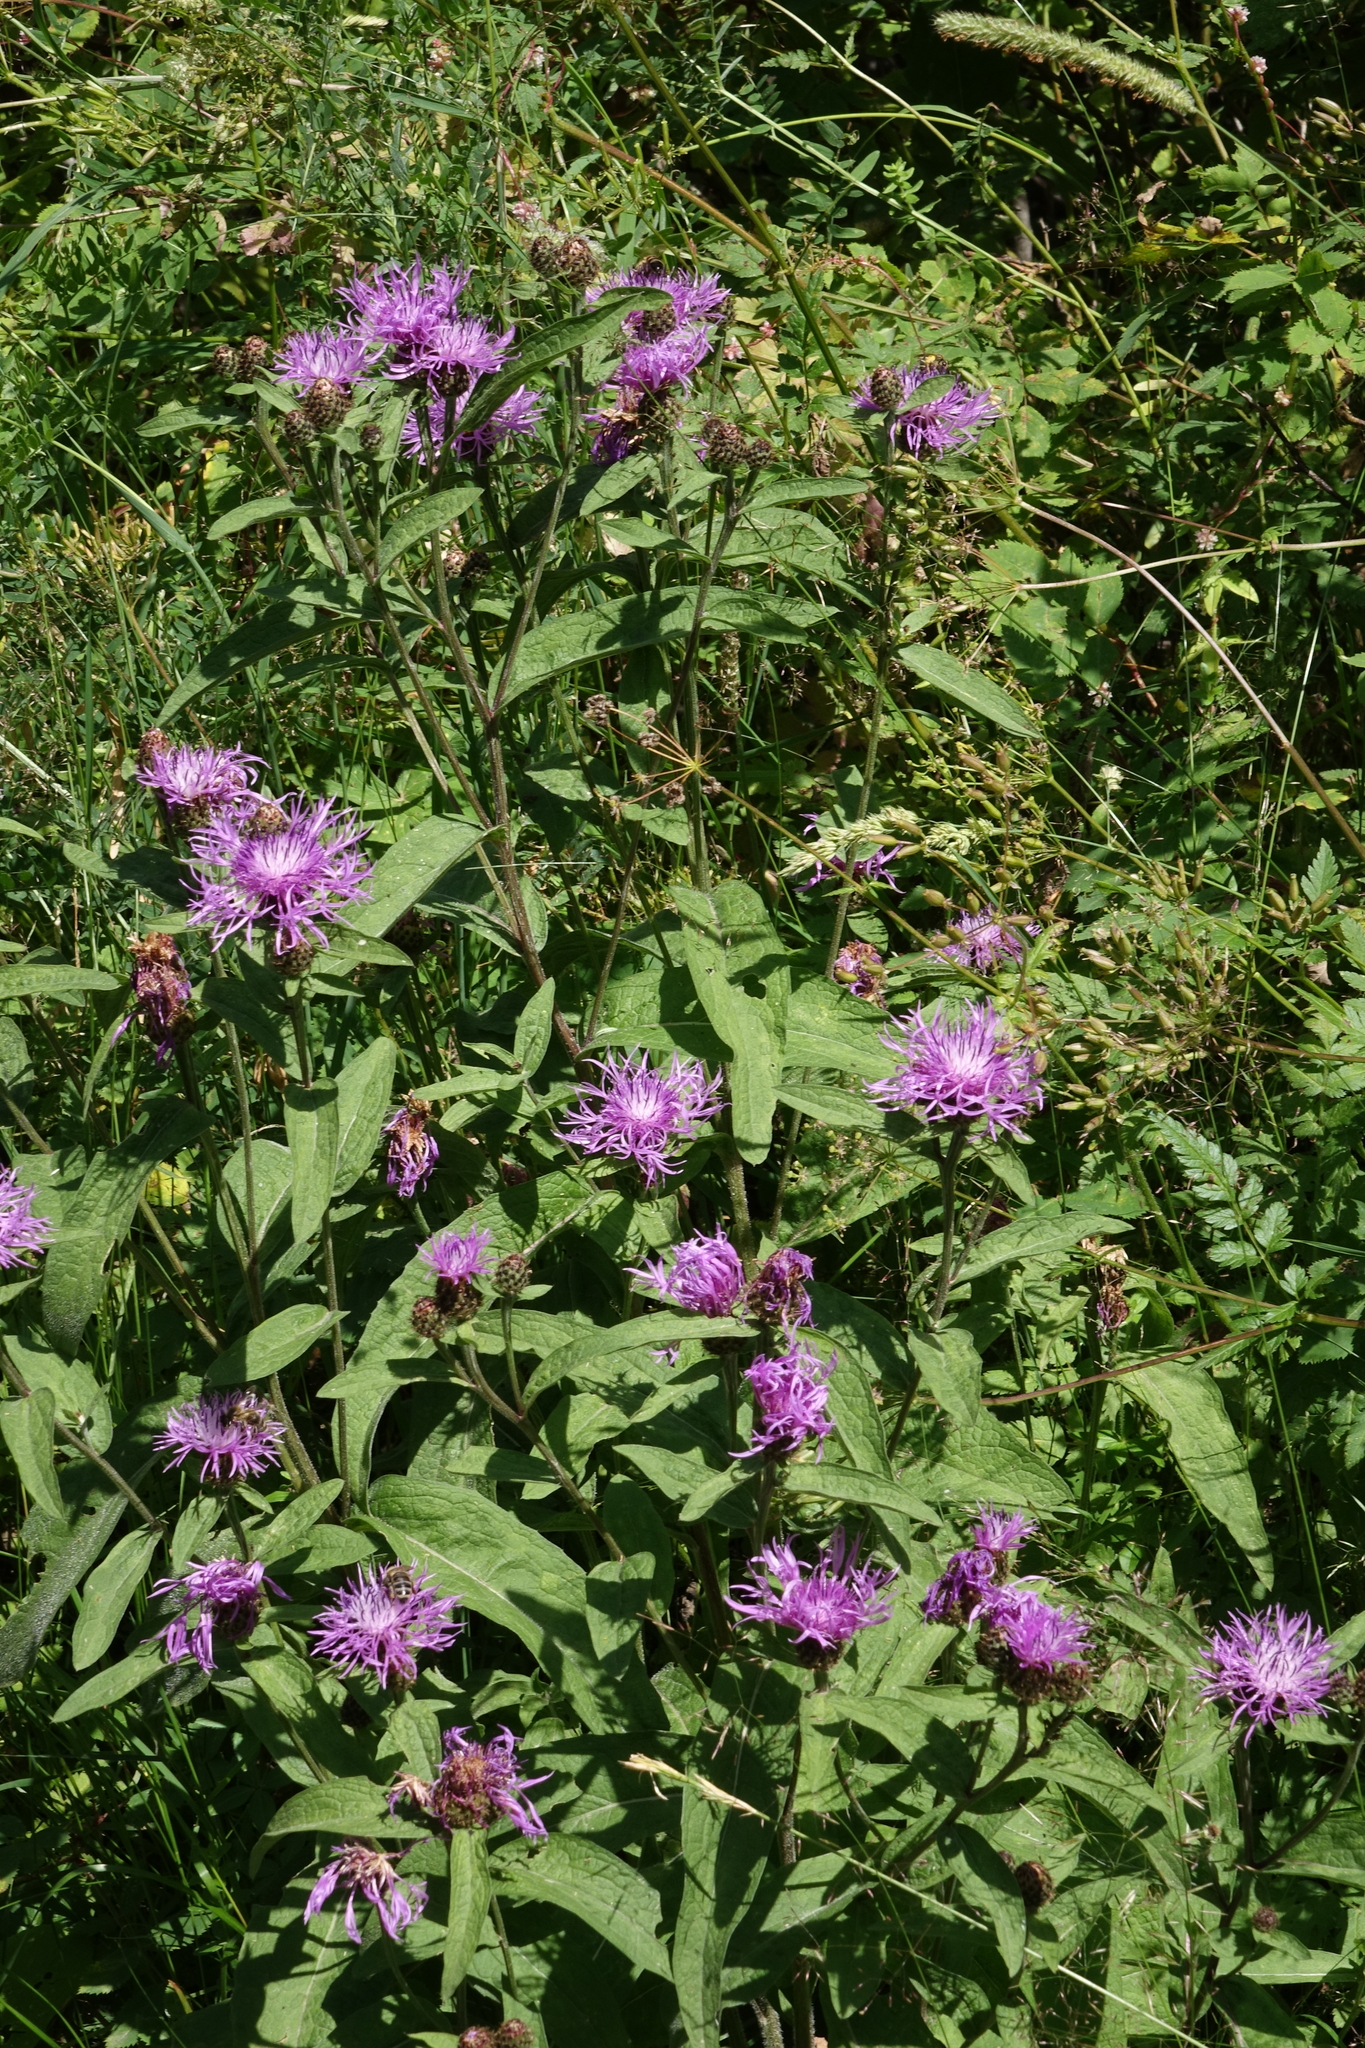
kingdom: Plantae
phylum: Tracheophyta
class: Magnoliopsida
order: Asterales
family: Asteraceae
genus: Centaurea
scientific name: Centaurea phrygia
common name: Wig knapweed
